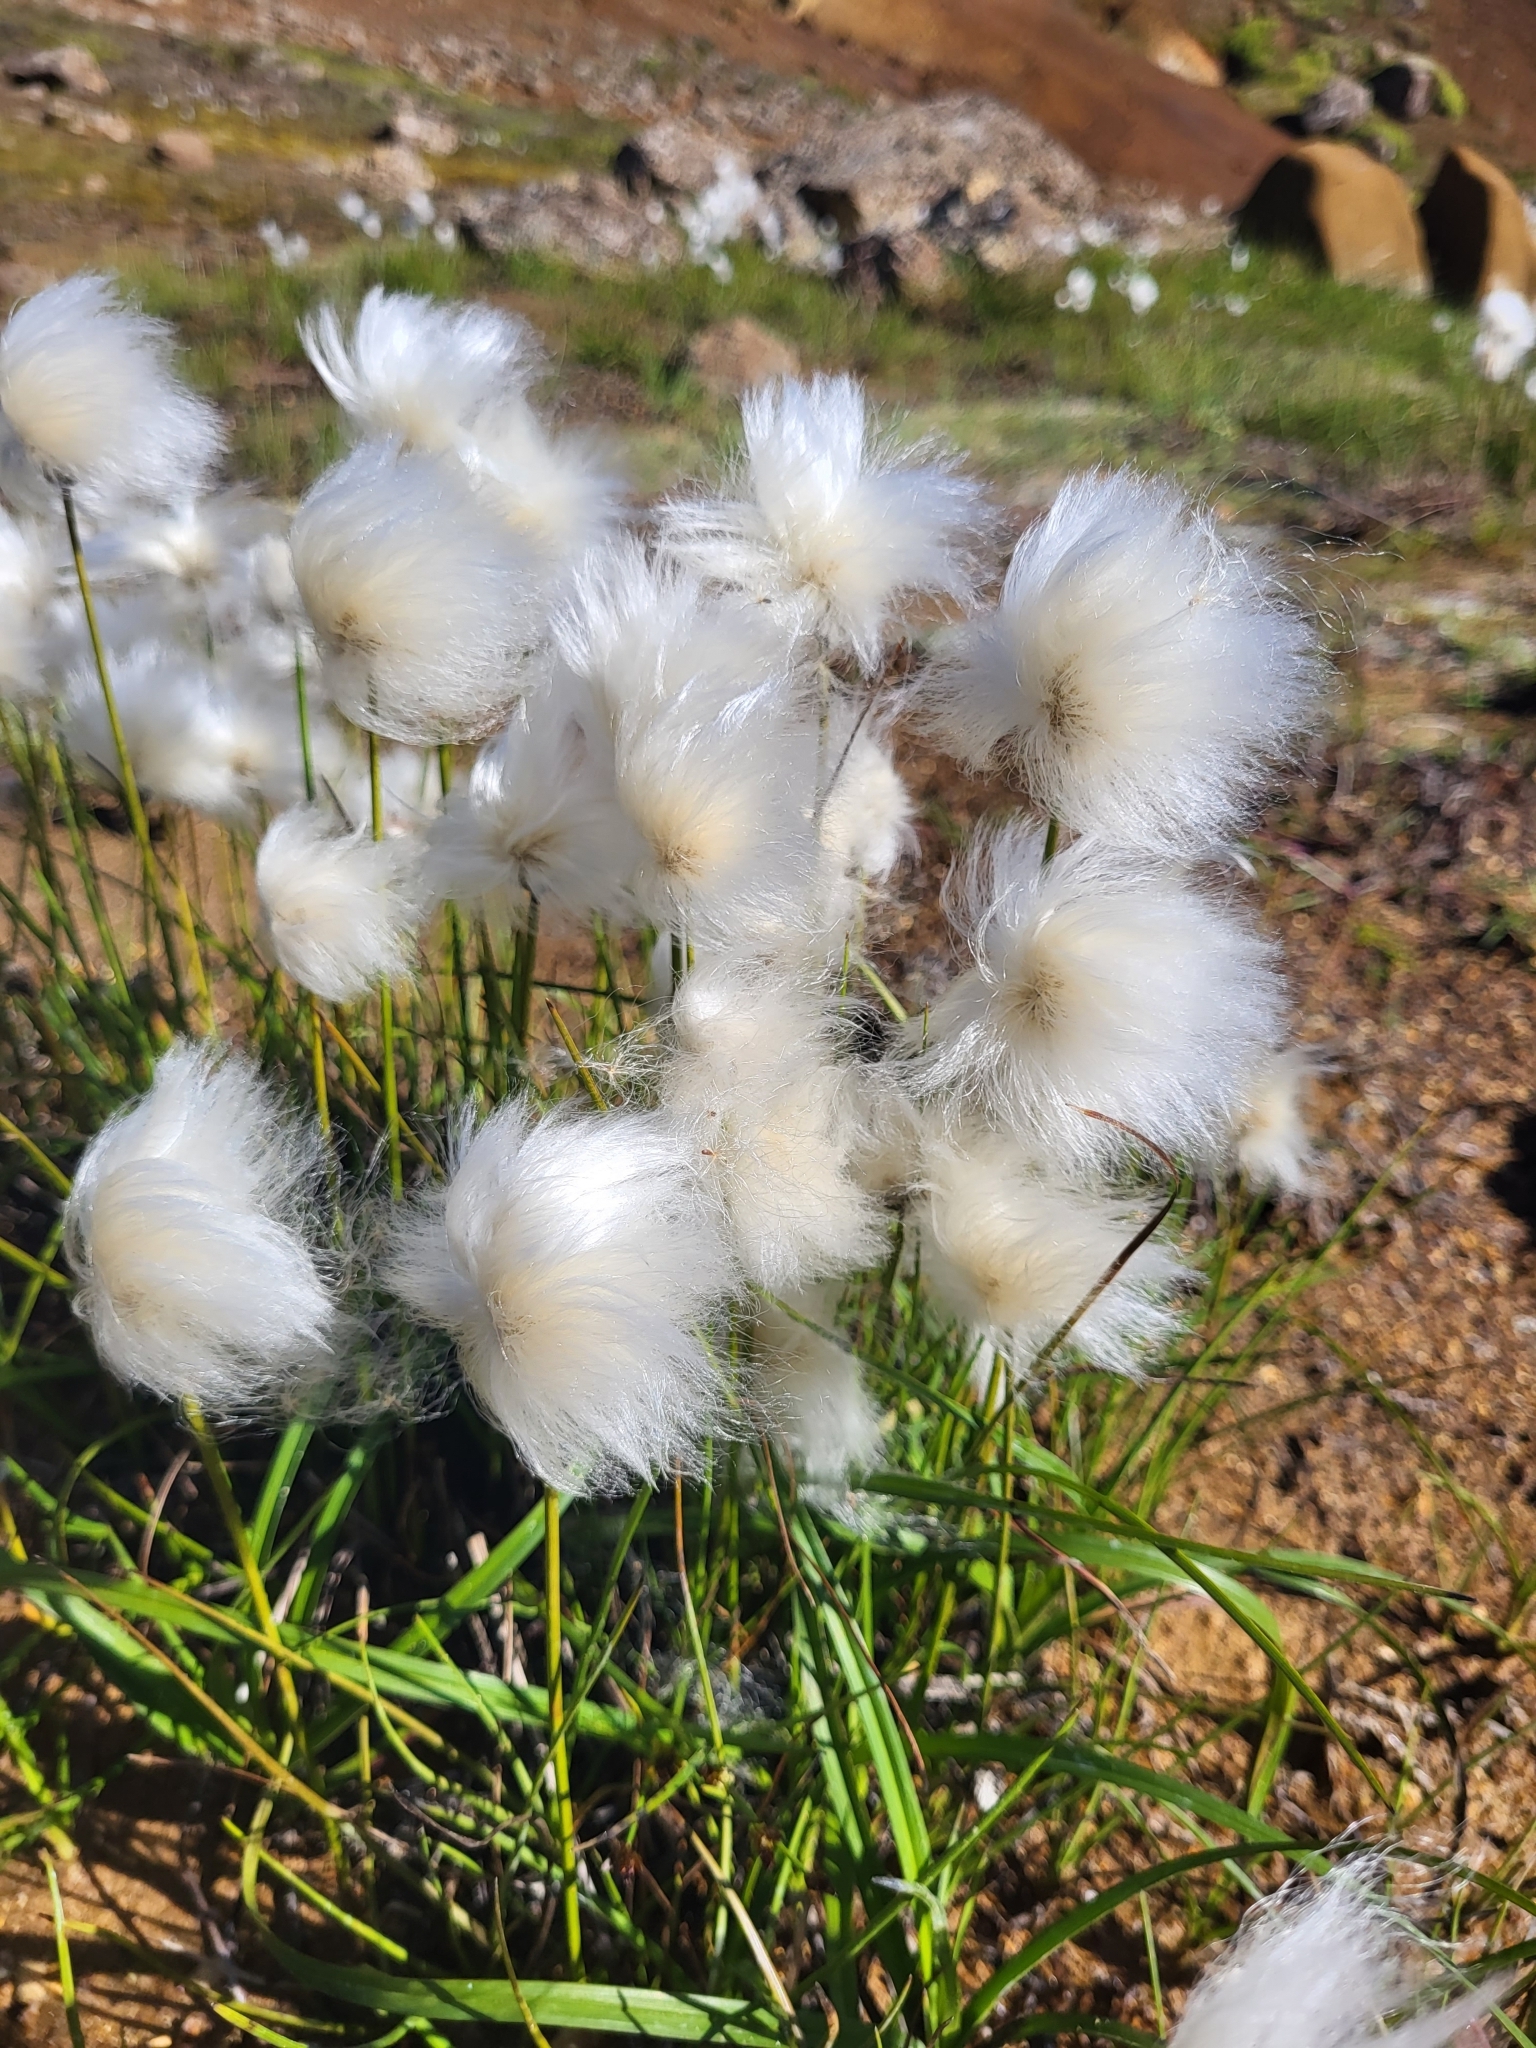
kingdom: Plantae
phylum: Tracheophyta
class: Liliopsida
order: Poales
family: Cyperaceae
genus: Eriophorum
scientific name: Eriophorum scheuchzeri
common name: Scheuchzer's cottongrass
